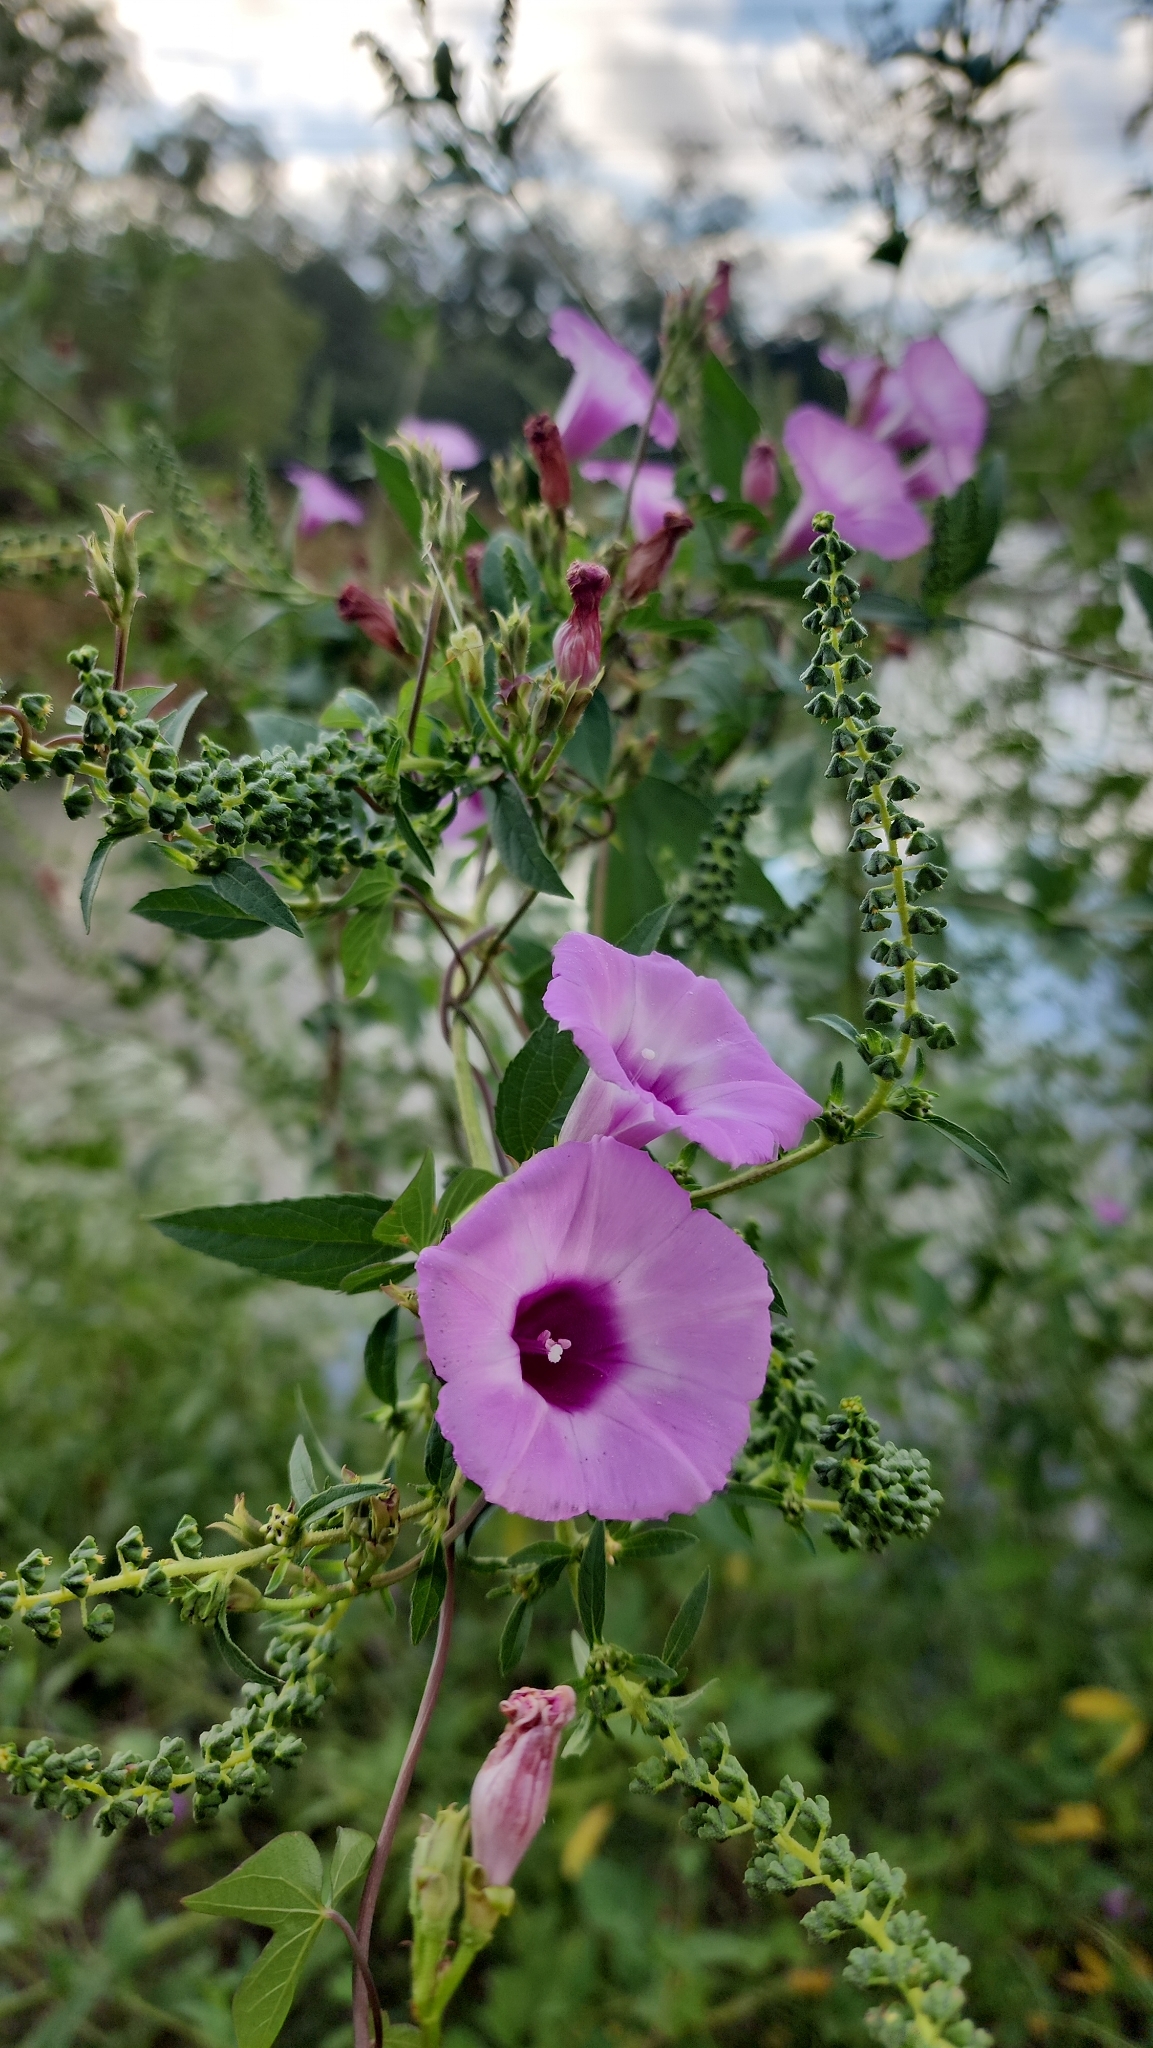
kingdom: Plantae
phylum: Tracheophyta
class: Magnoliopsida
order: Solanales
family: Convolvulaceae
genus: Ipomoea
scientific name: Ipomoea cordatotriloba
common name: Cotton morning glory
